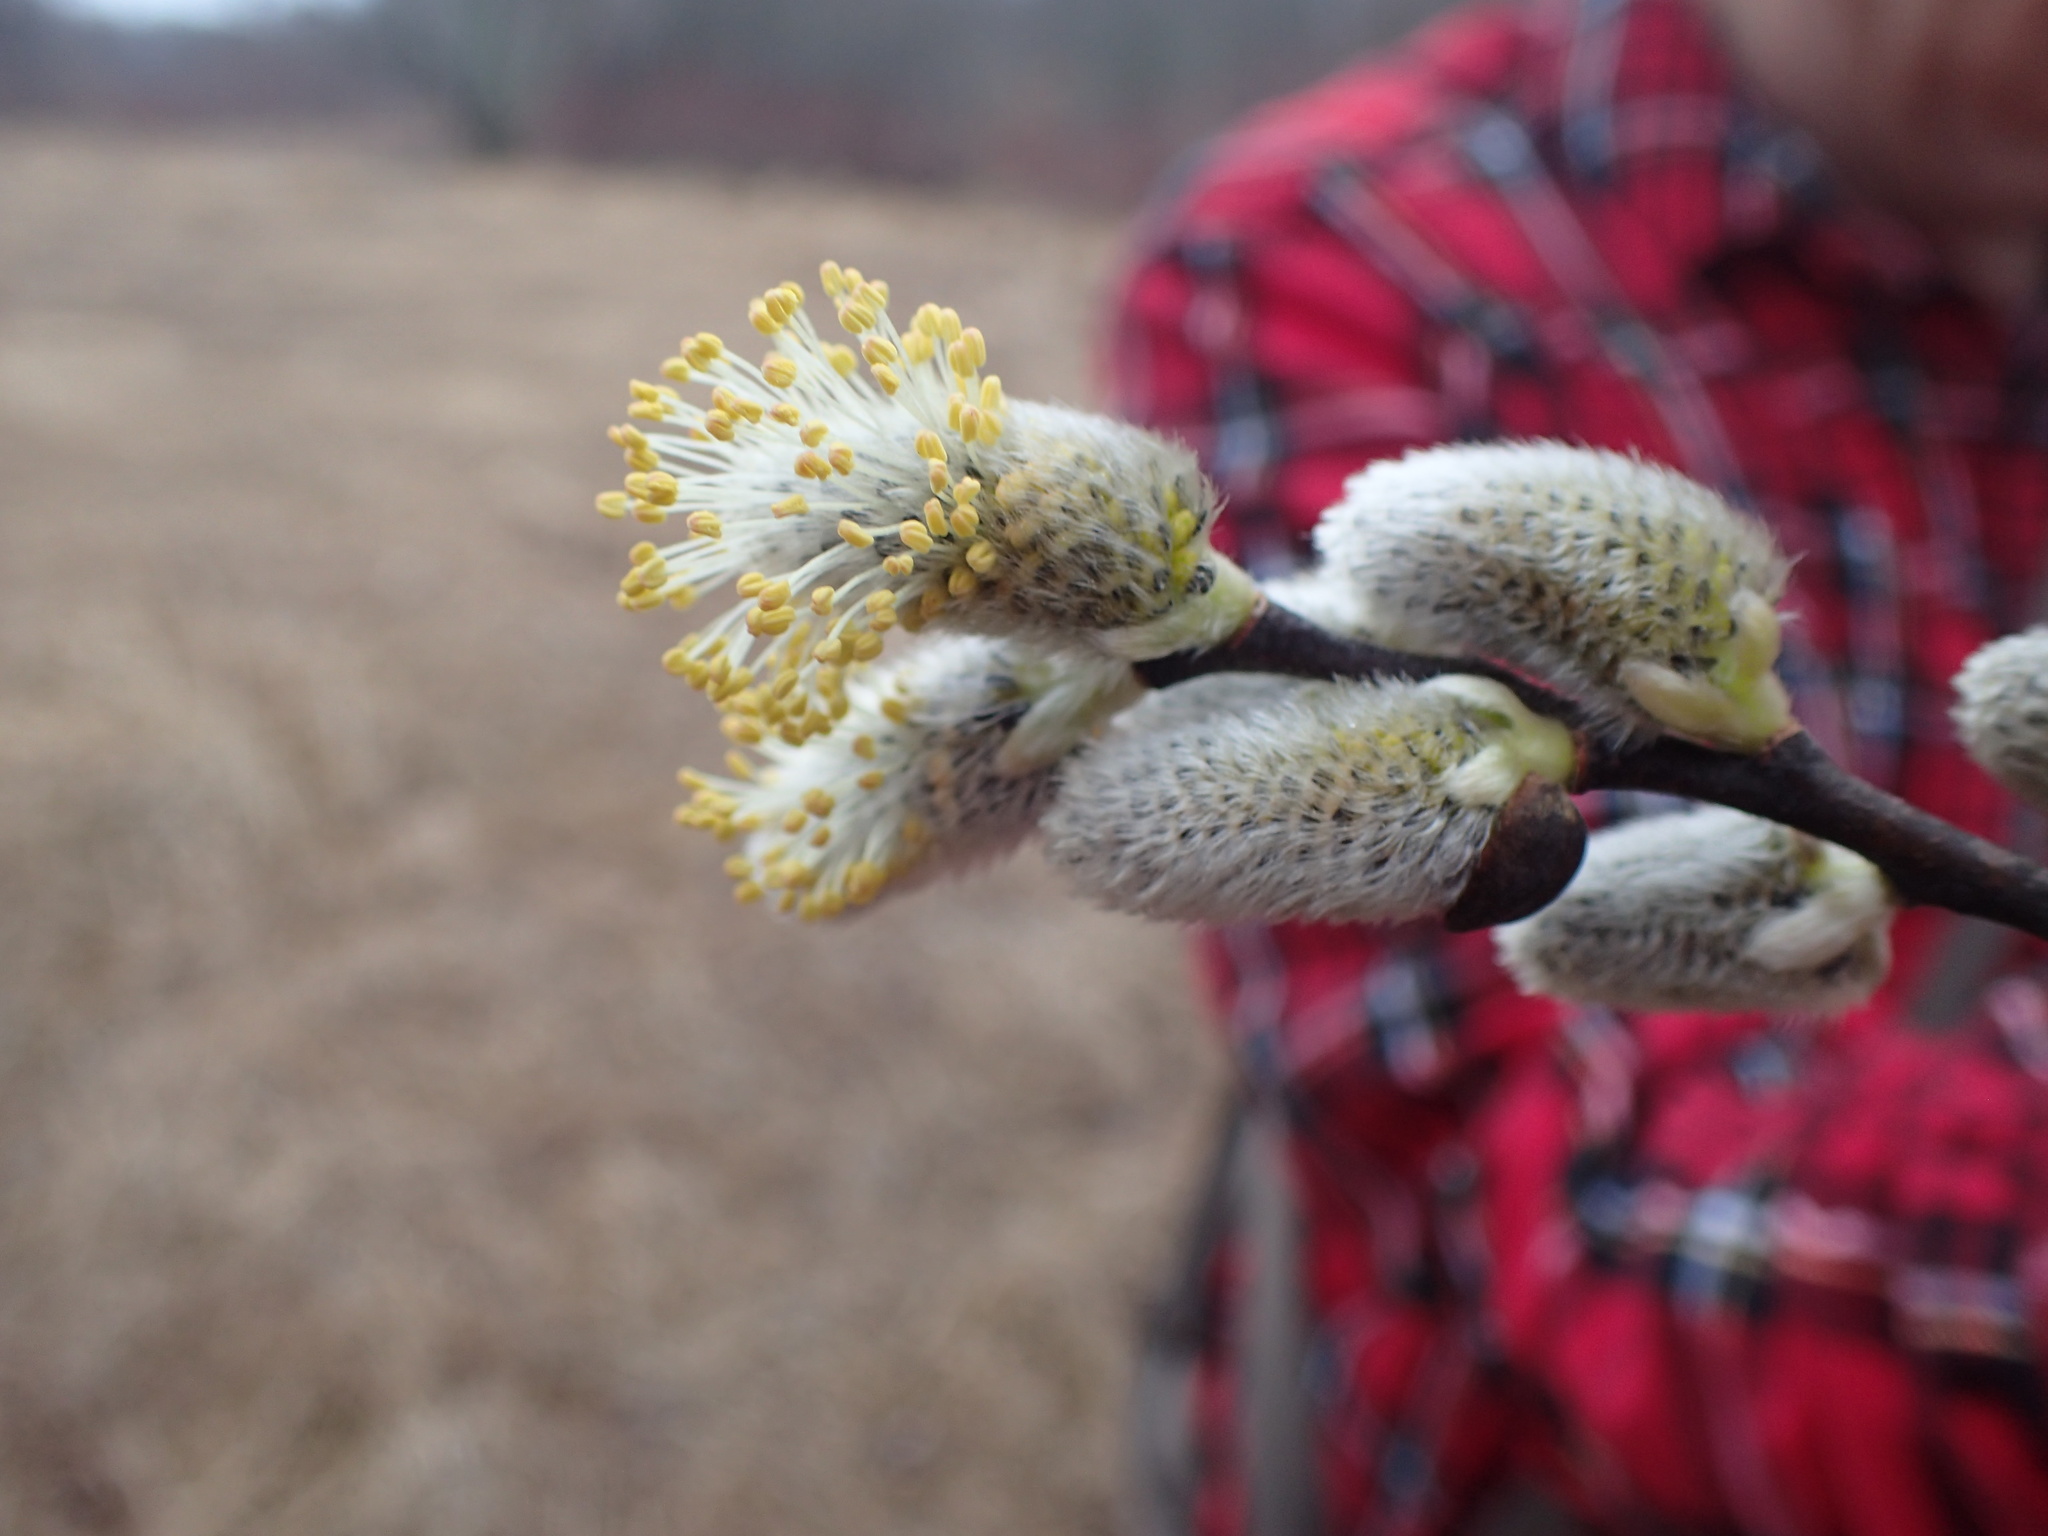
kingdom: Plantae
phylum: Tracheophyta
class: Magnoliopsida
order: Malpighiales
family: Salicaceae
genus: Salix
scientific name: Salix
